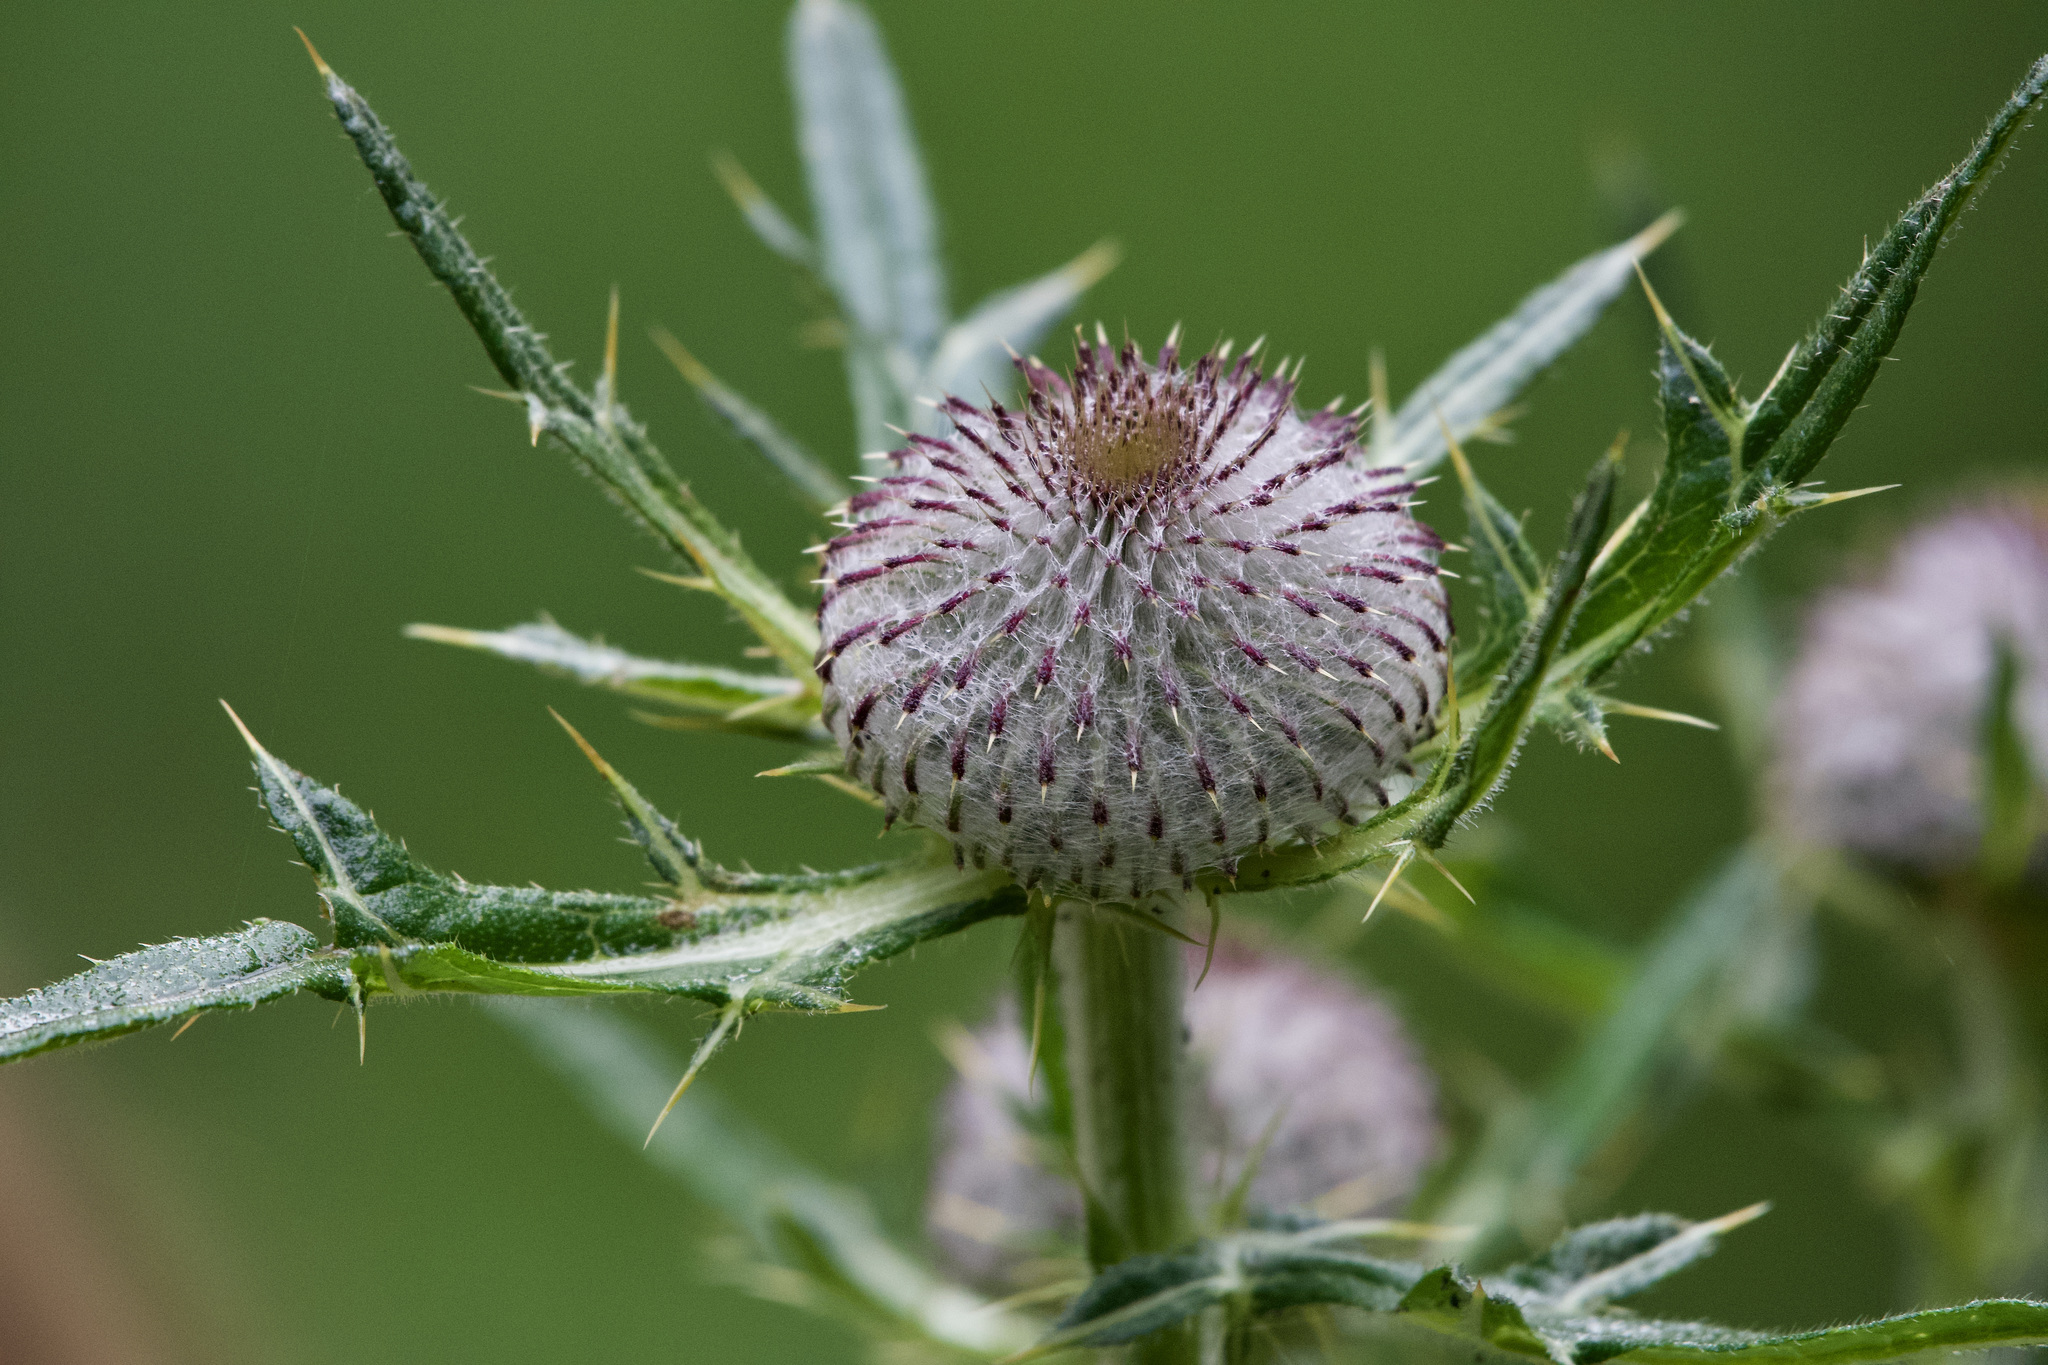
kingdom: Plantae
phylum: Tracheophyta
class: Magnoliopsida
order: Asterales
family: Asteraceae
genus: Lophiolepis
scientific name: Lophiolepis eriophora
